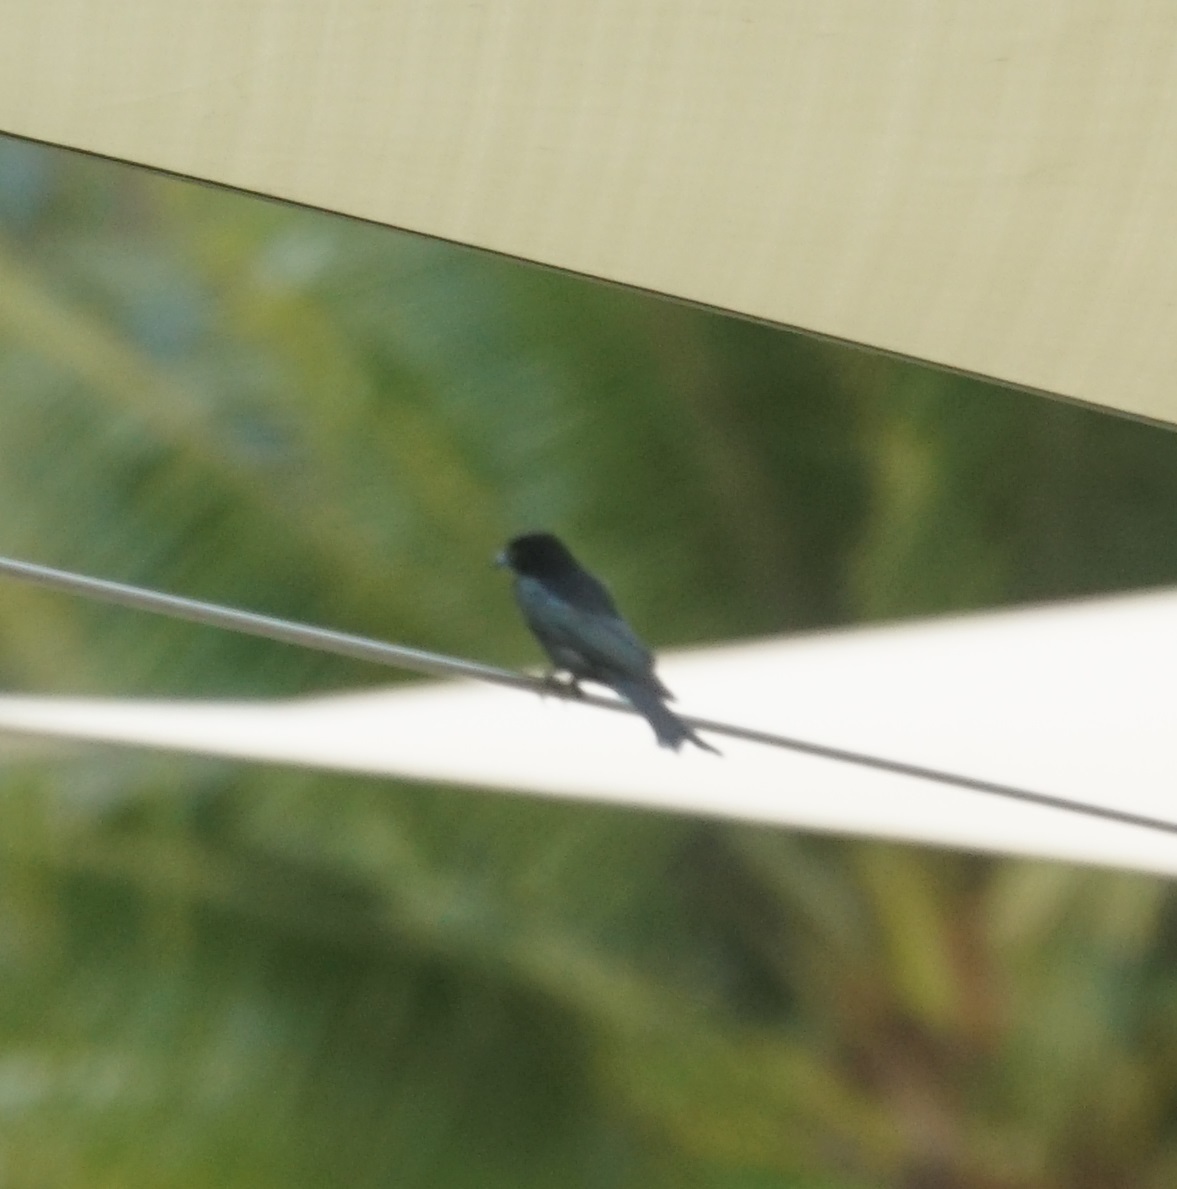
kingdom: Animalia
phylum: Chordata
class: Aves
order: Passeriformes
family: Dicruridae
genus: Dicrurus
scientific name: Dicrurus bracteatus
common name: Spangled drongo
